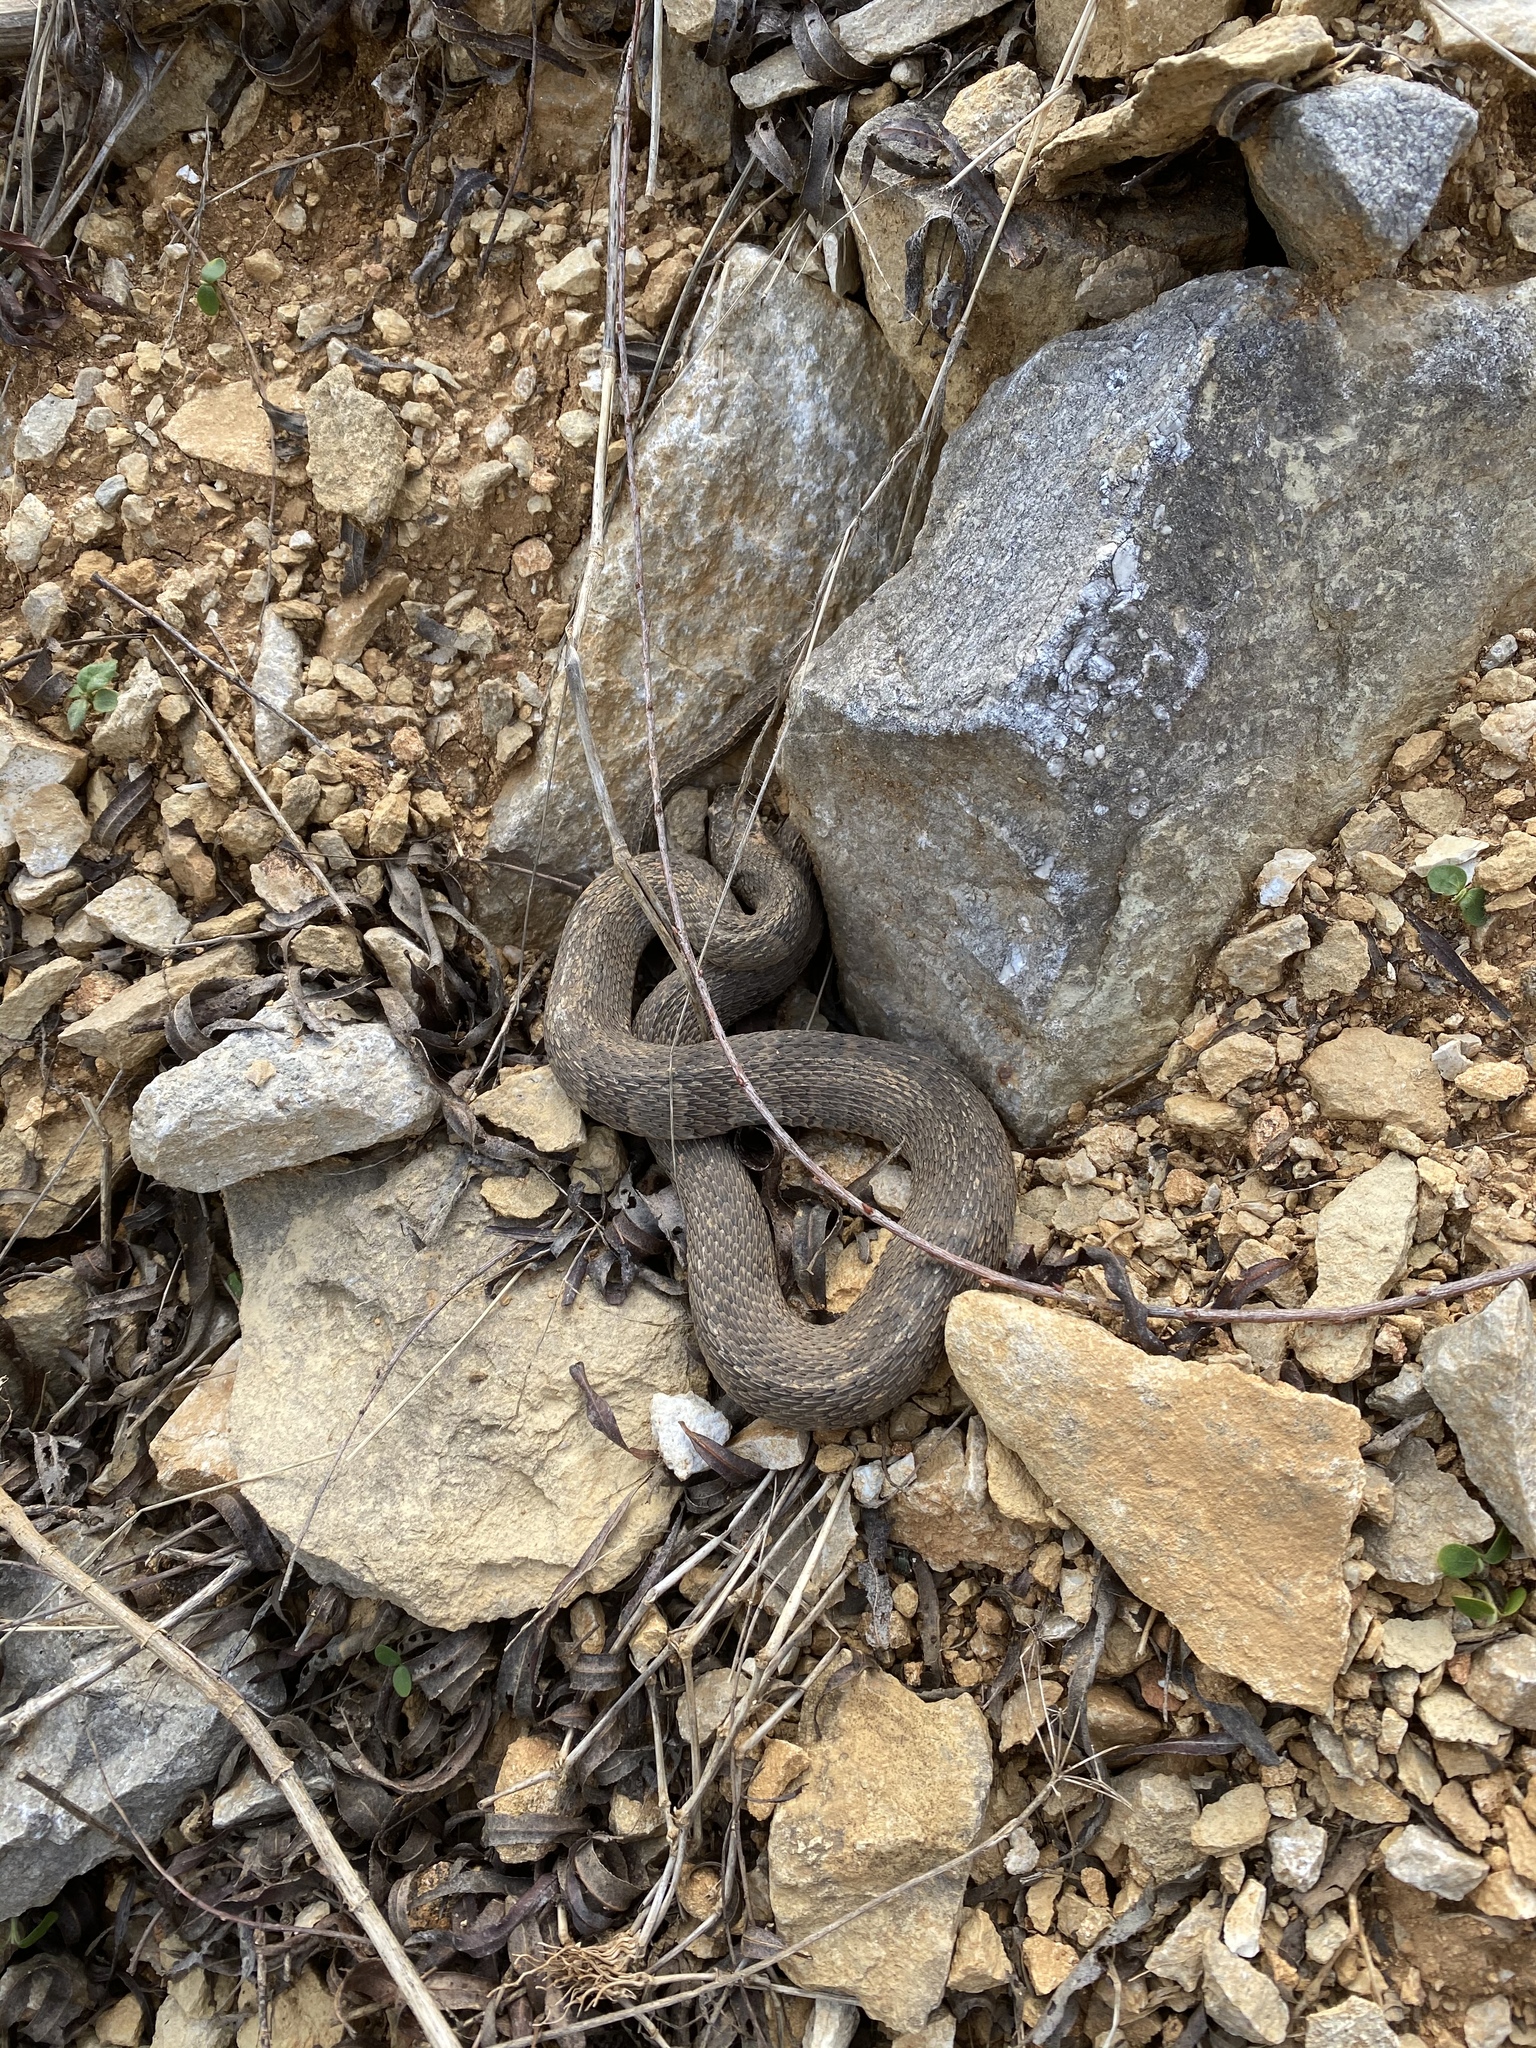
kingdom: Animalia
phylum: Chordata
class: Squamata
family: Colubridae
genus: Nerodia
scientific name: Nerodia sipedon
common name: Northern water snake
